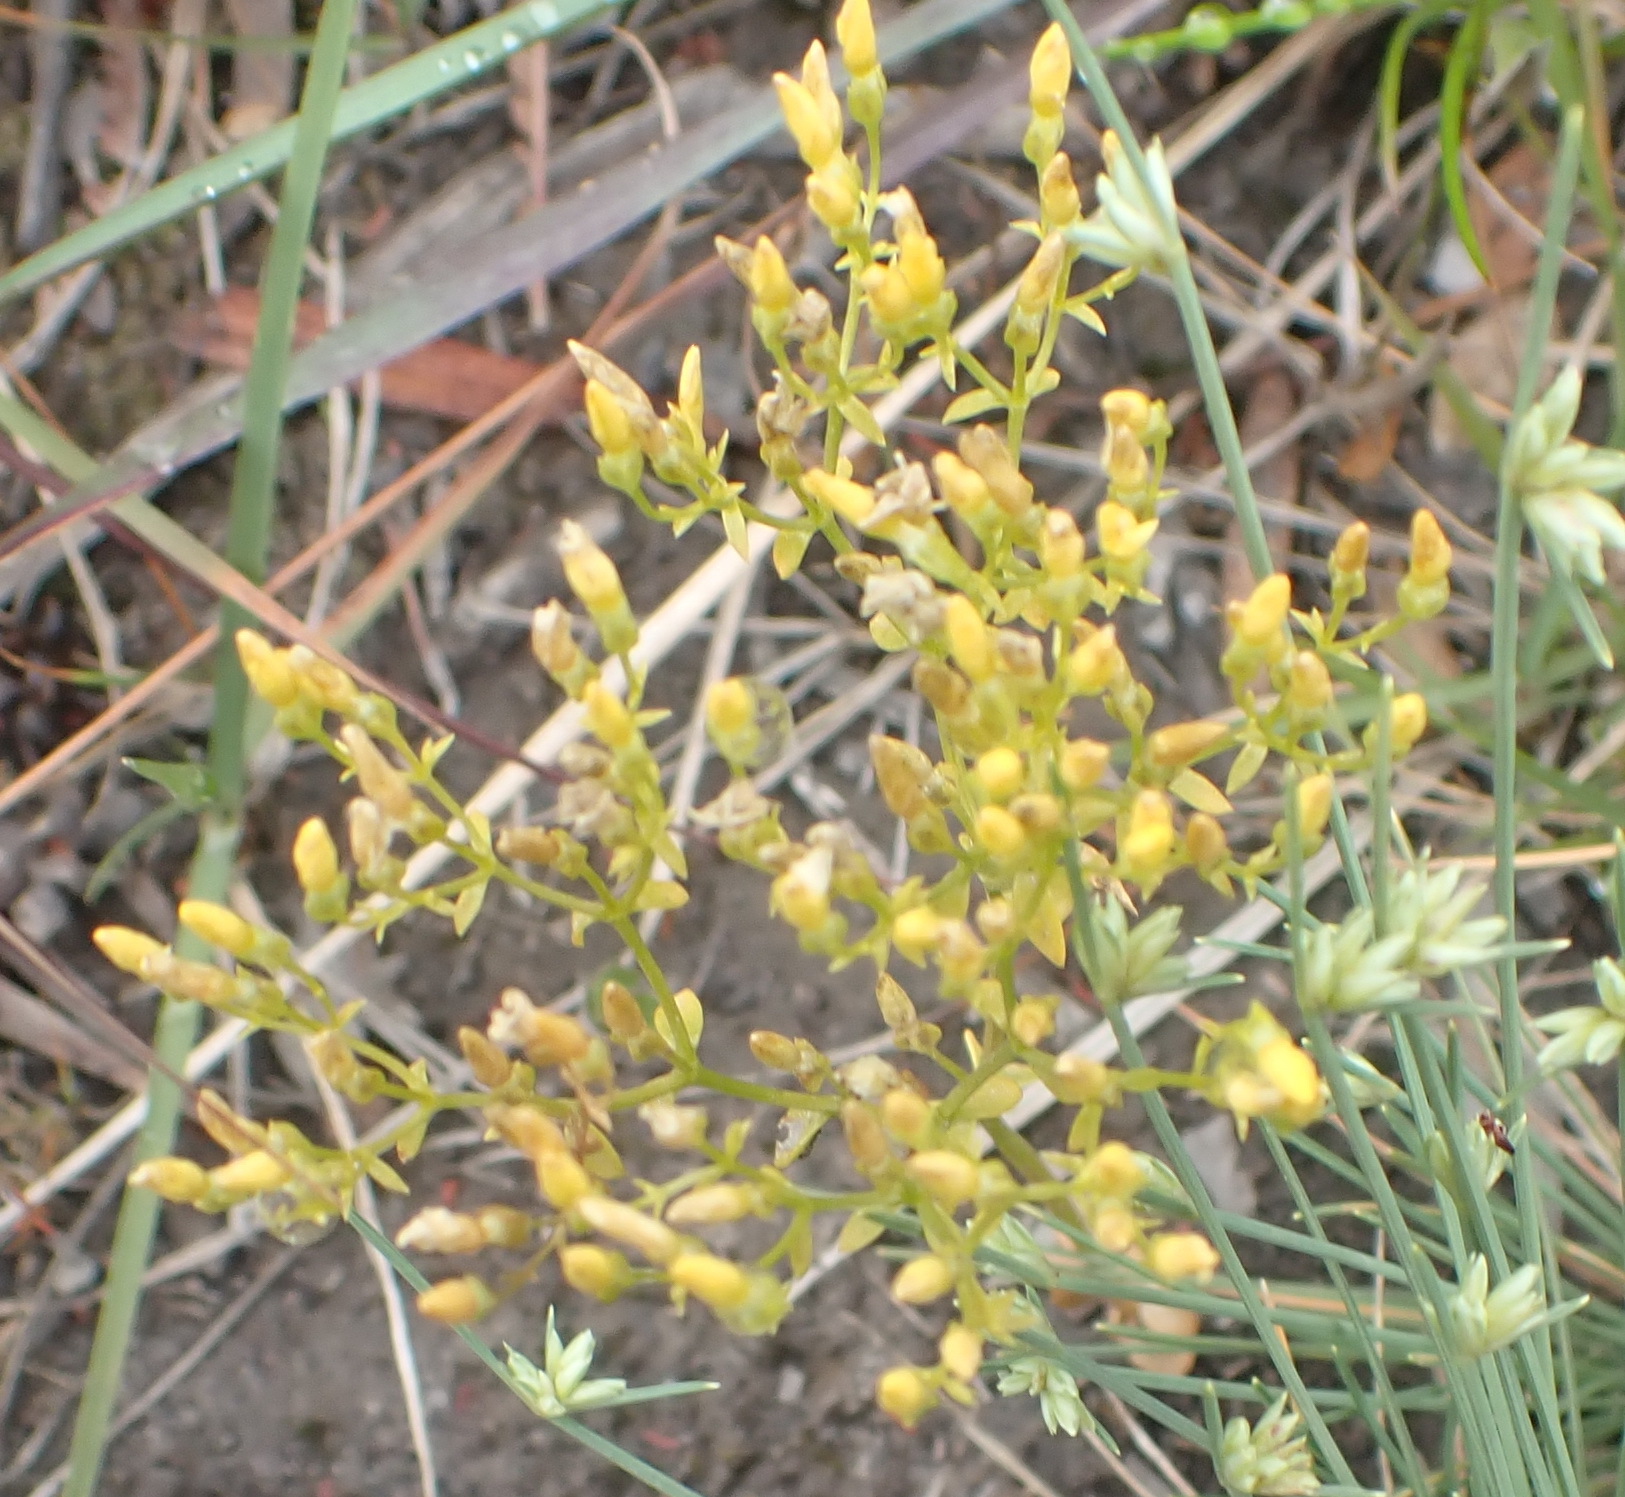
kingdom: Plantae
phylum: Tracheophyta
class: Magnoliopsida
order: Gentianales
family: Gentianaceae
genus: Sebaea
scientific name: Sebaea aurea
